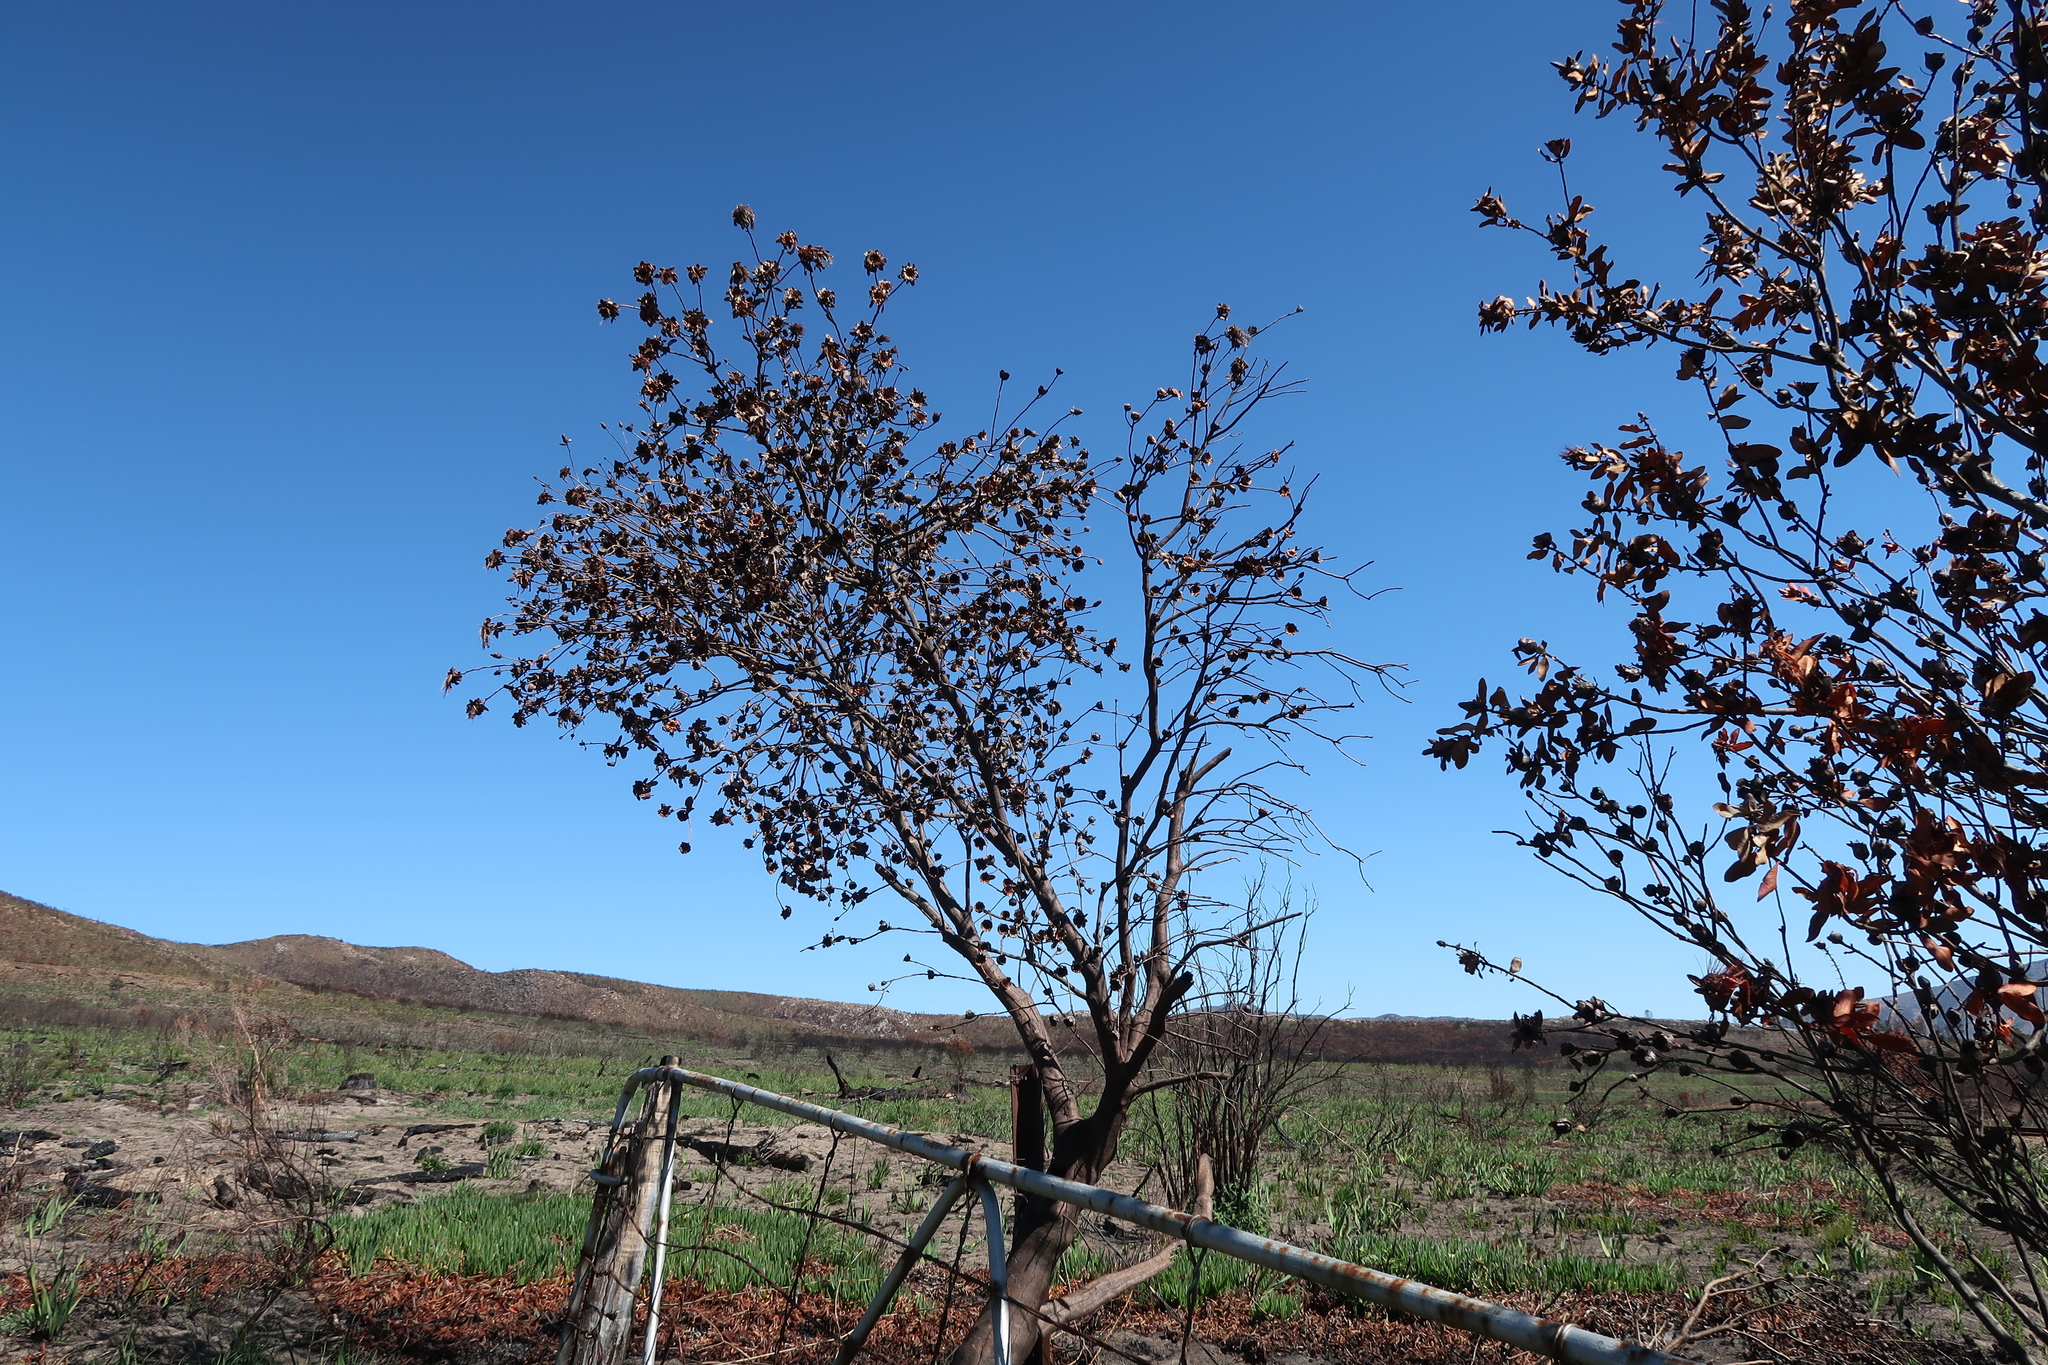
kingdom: Plantae
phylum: Tracheophyta
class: Magnoliopsida
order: Proteales
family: Proteaceae
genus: Protea
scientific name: Protea mundii
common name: Forest sugarbush
